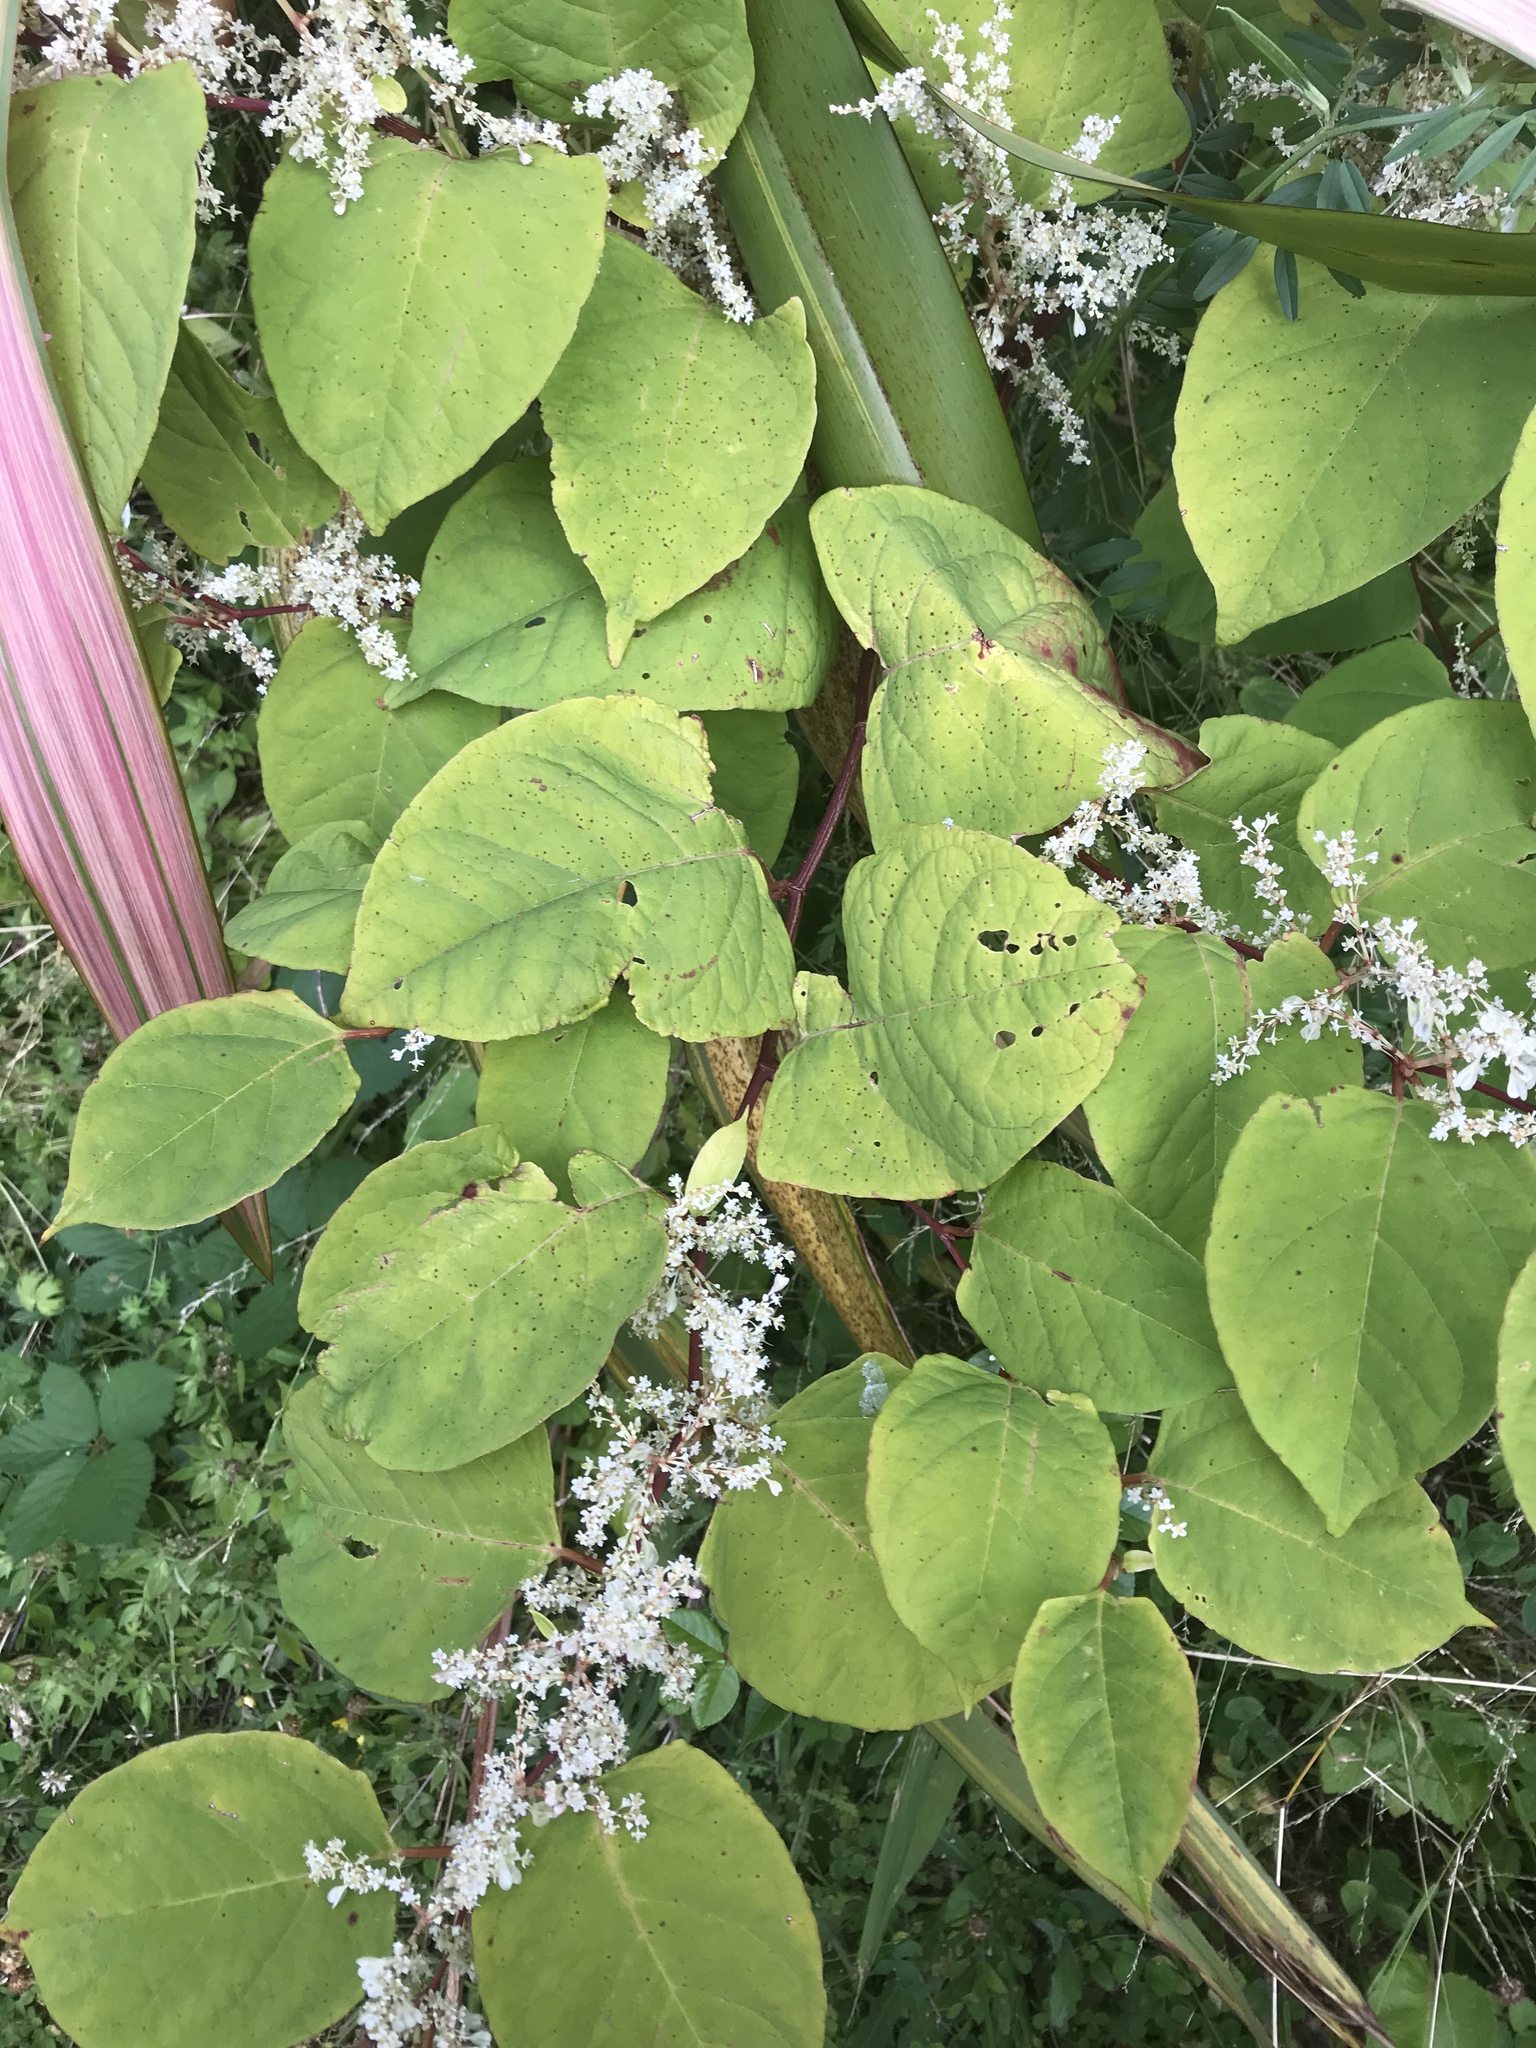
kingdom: Plantae
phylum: Tracheophyta
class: Magnoliopsida
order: Caryophyllales
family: Polygonaceae
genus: Reynoutria
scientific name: Reynoutria japonica
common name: Japanese knotweed
